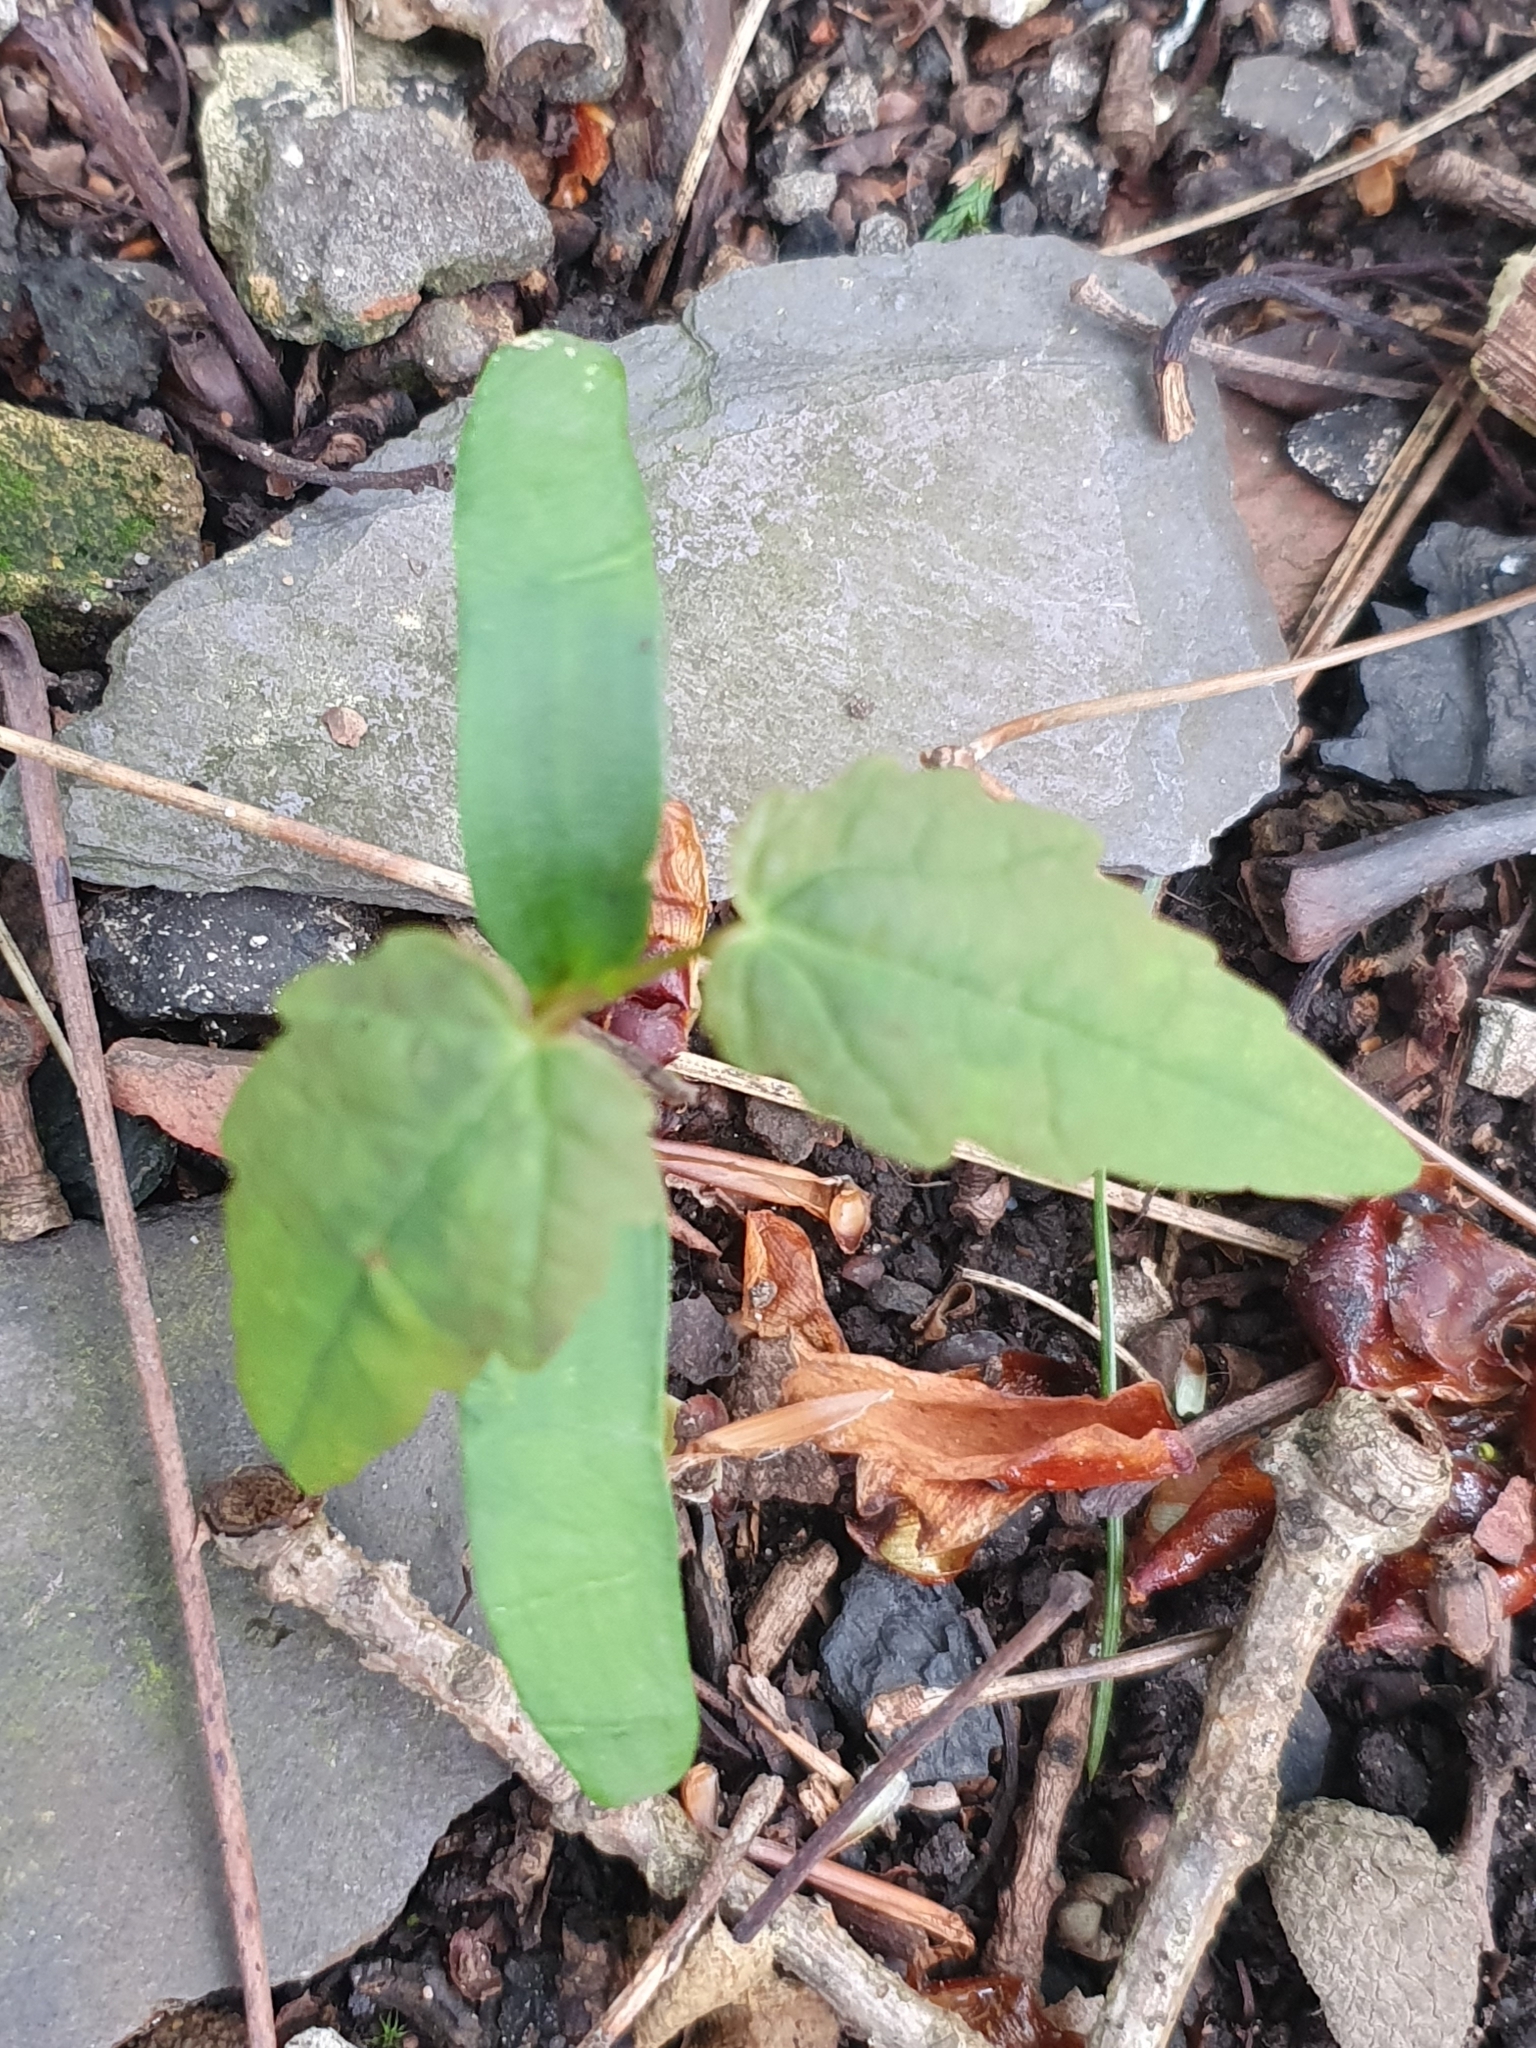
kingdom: Plantae
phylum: Tracheophyta
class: Magnoliopsida
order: Sapindales
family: Sapindaceae
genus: Acer
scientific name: Acer pseudoplatanus
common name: Sycamore
